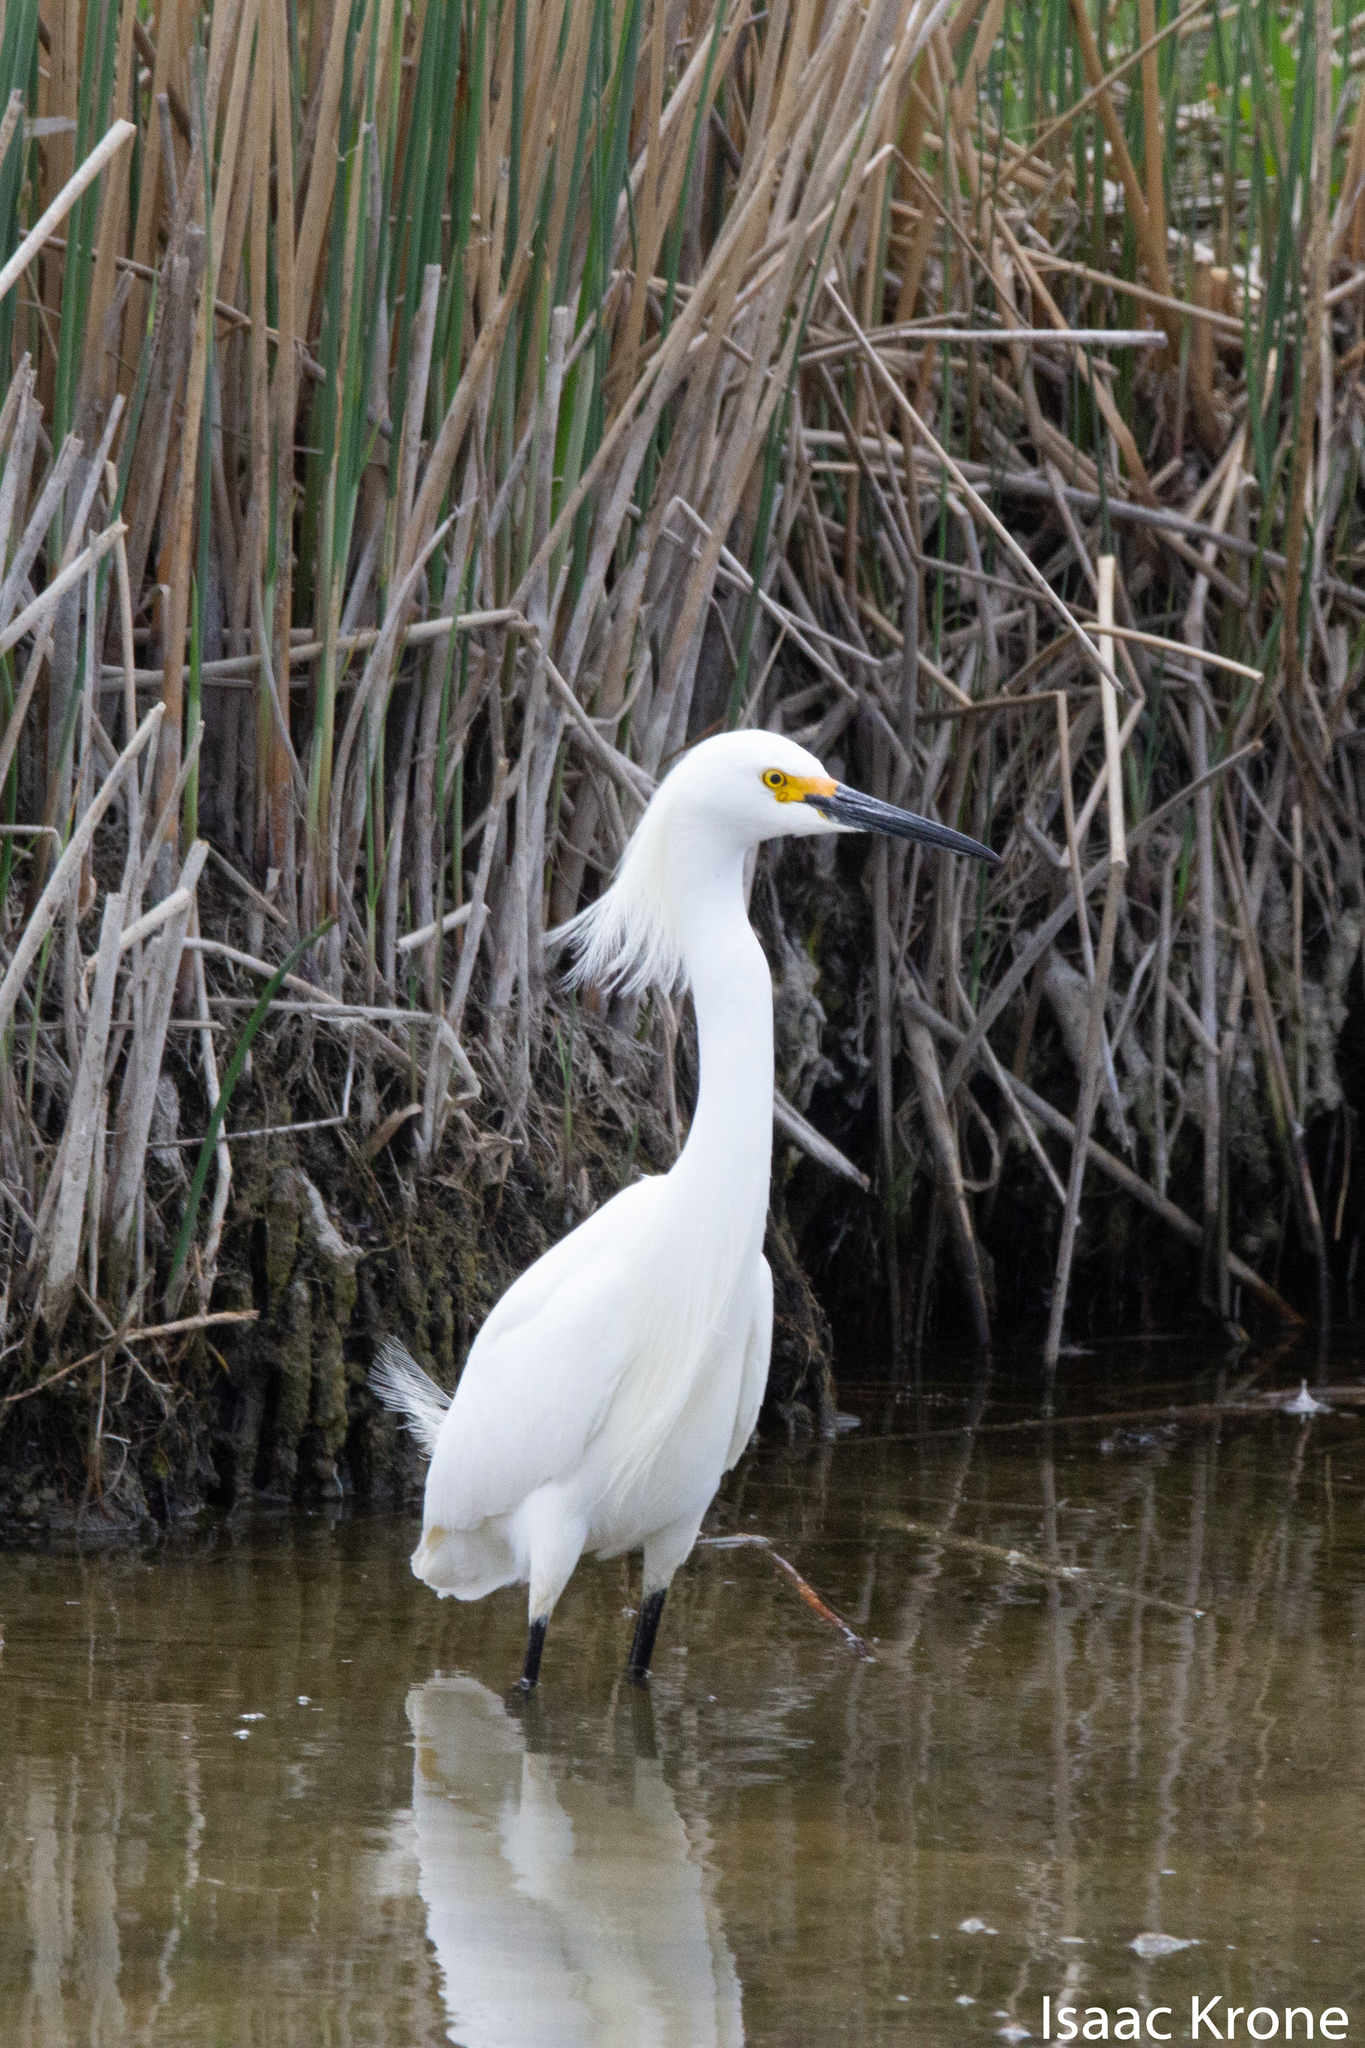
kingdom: Animalia
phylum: Chordata
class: Aves
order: Pelecaniformes
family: Ardeidae
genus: Egretta
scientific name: Egretta thula
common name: Snowy egret
